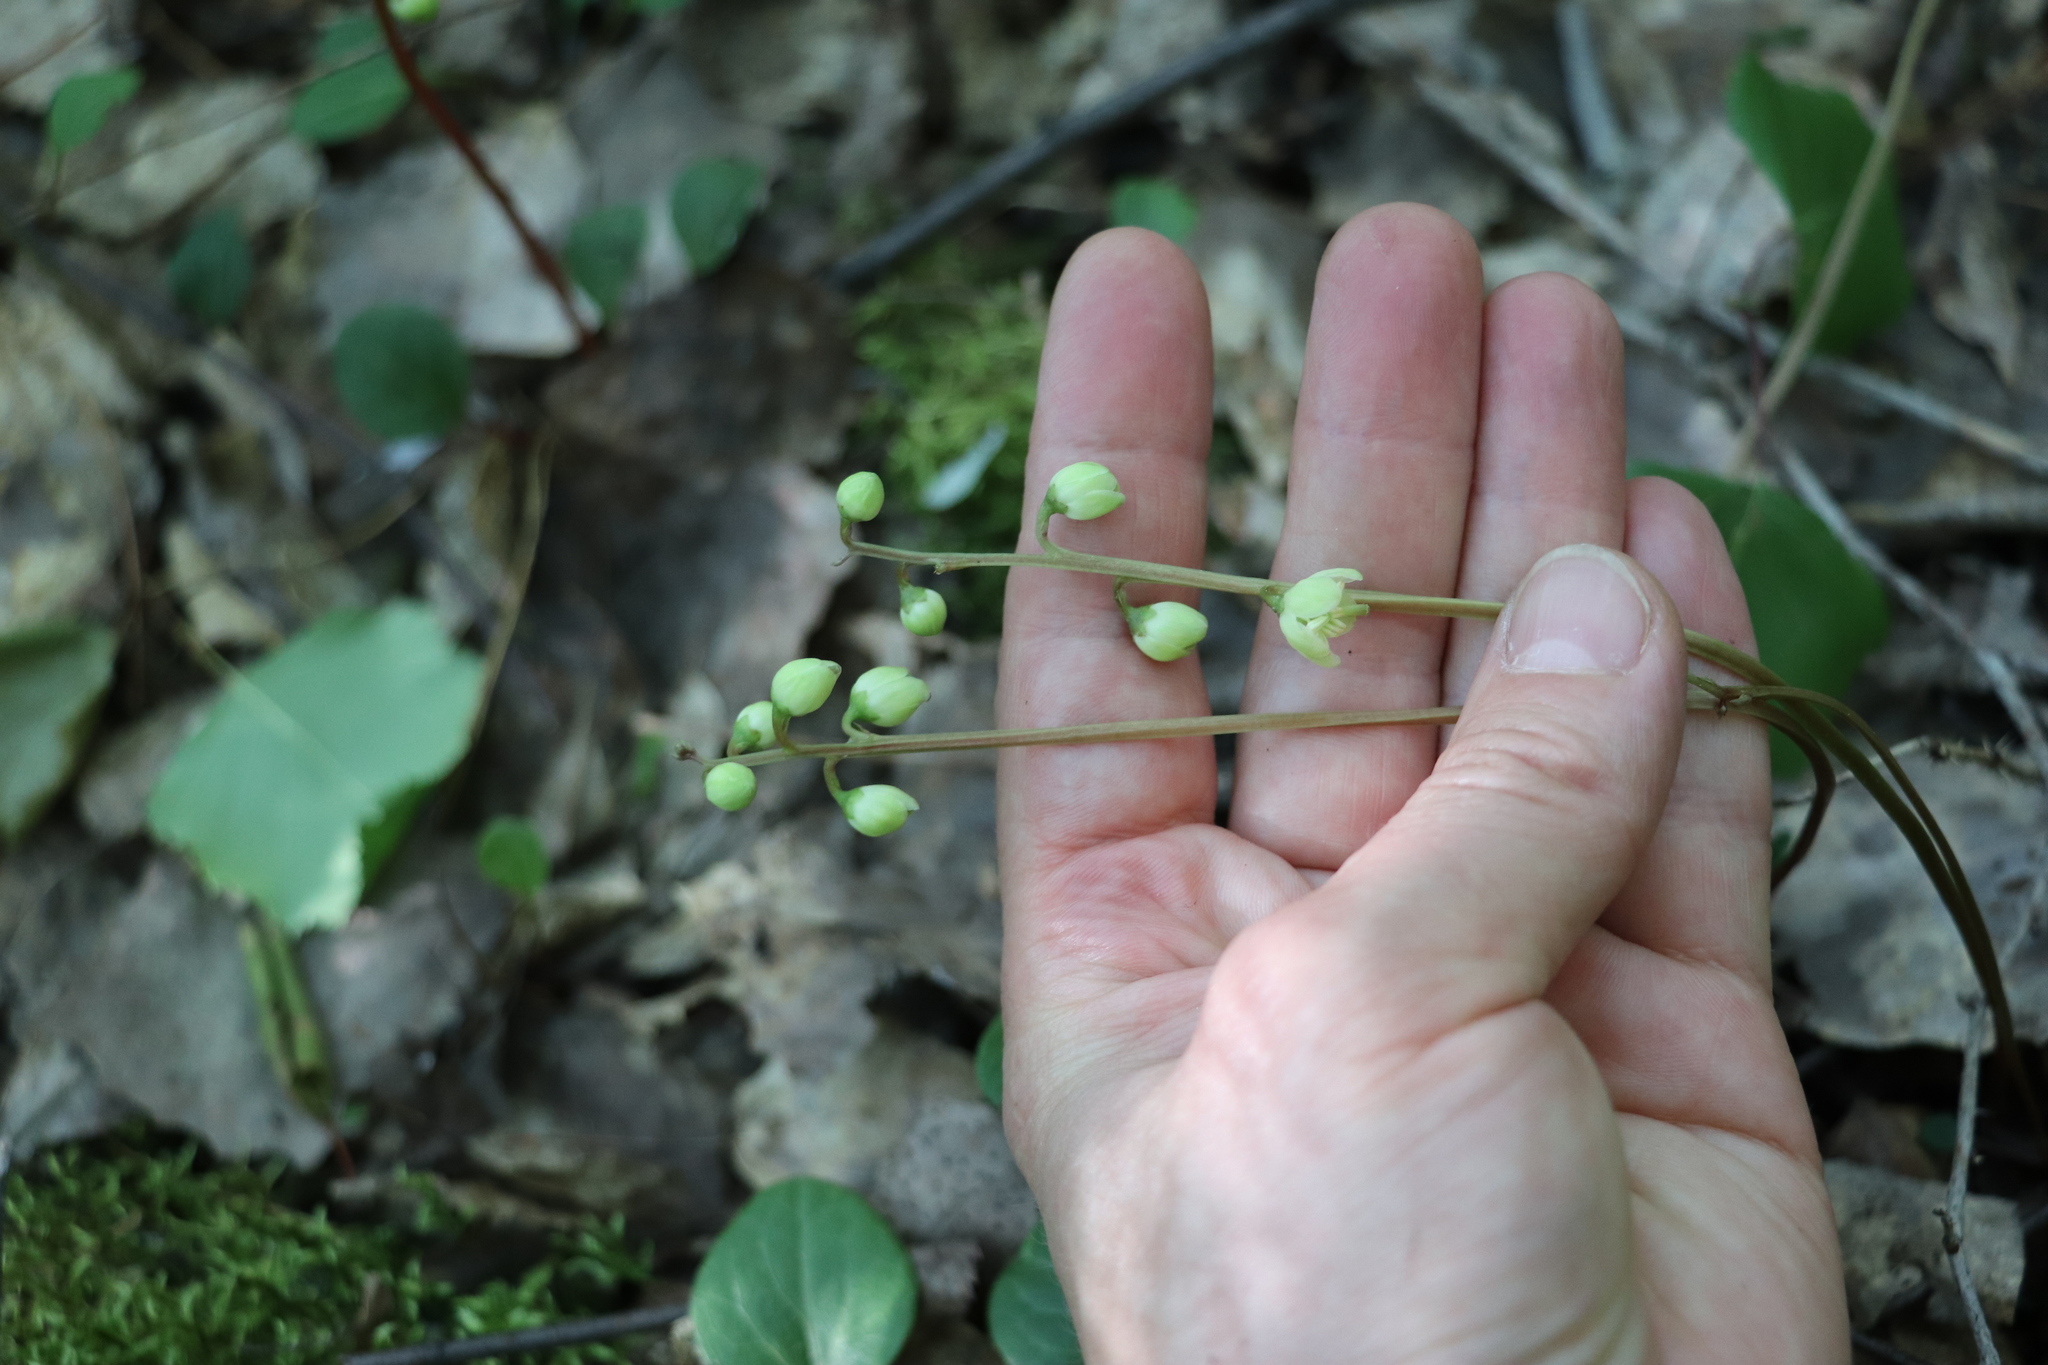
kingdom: Plantae
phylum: Tracheophyta
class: Magnoliopsida
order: Ericales
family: Ericaceae
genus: Pyrola
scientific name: Pyrola chlorantha
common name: Green wintergreen
